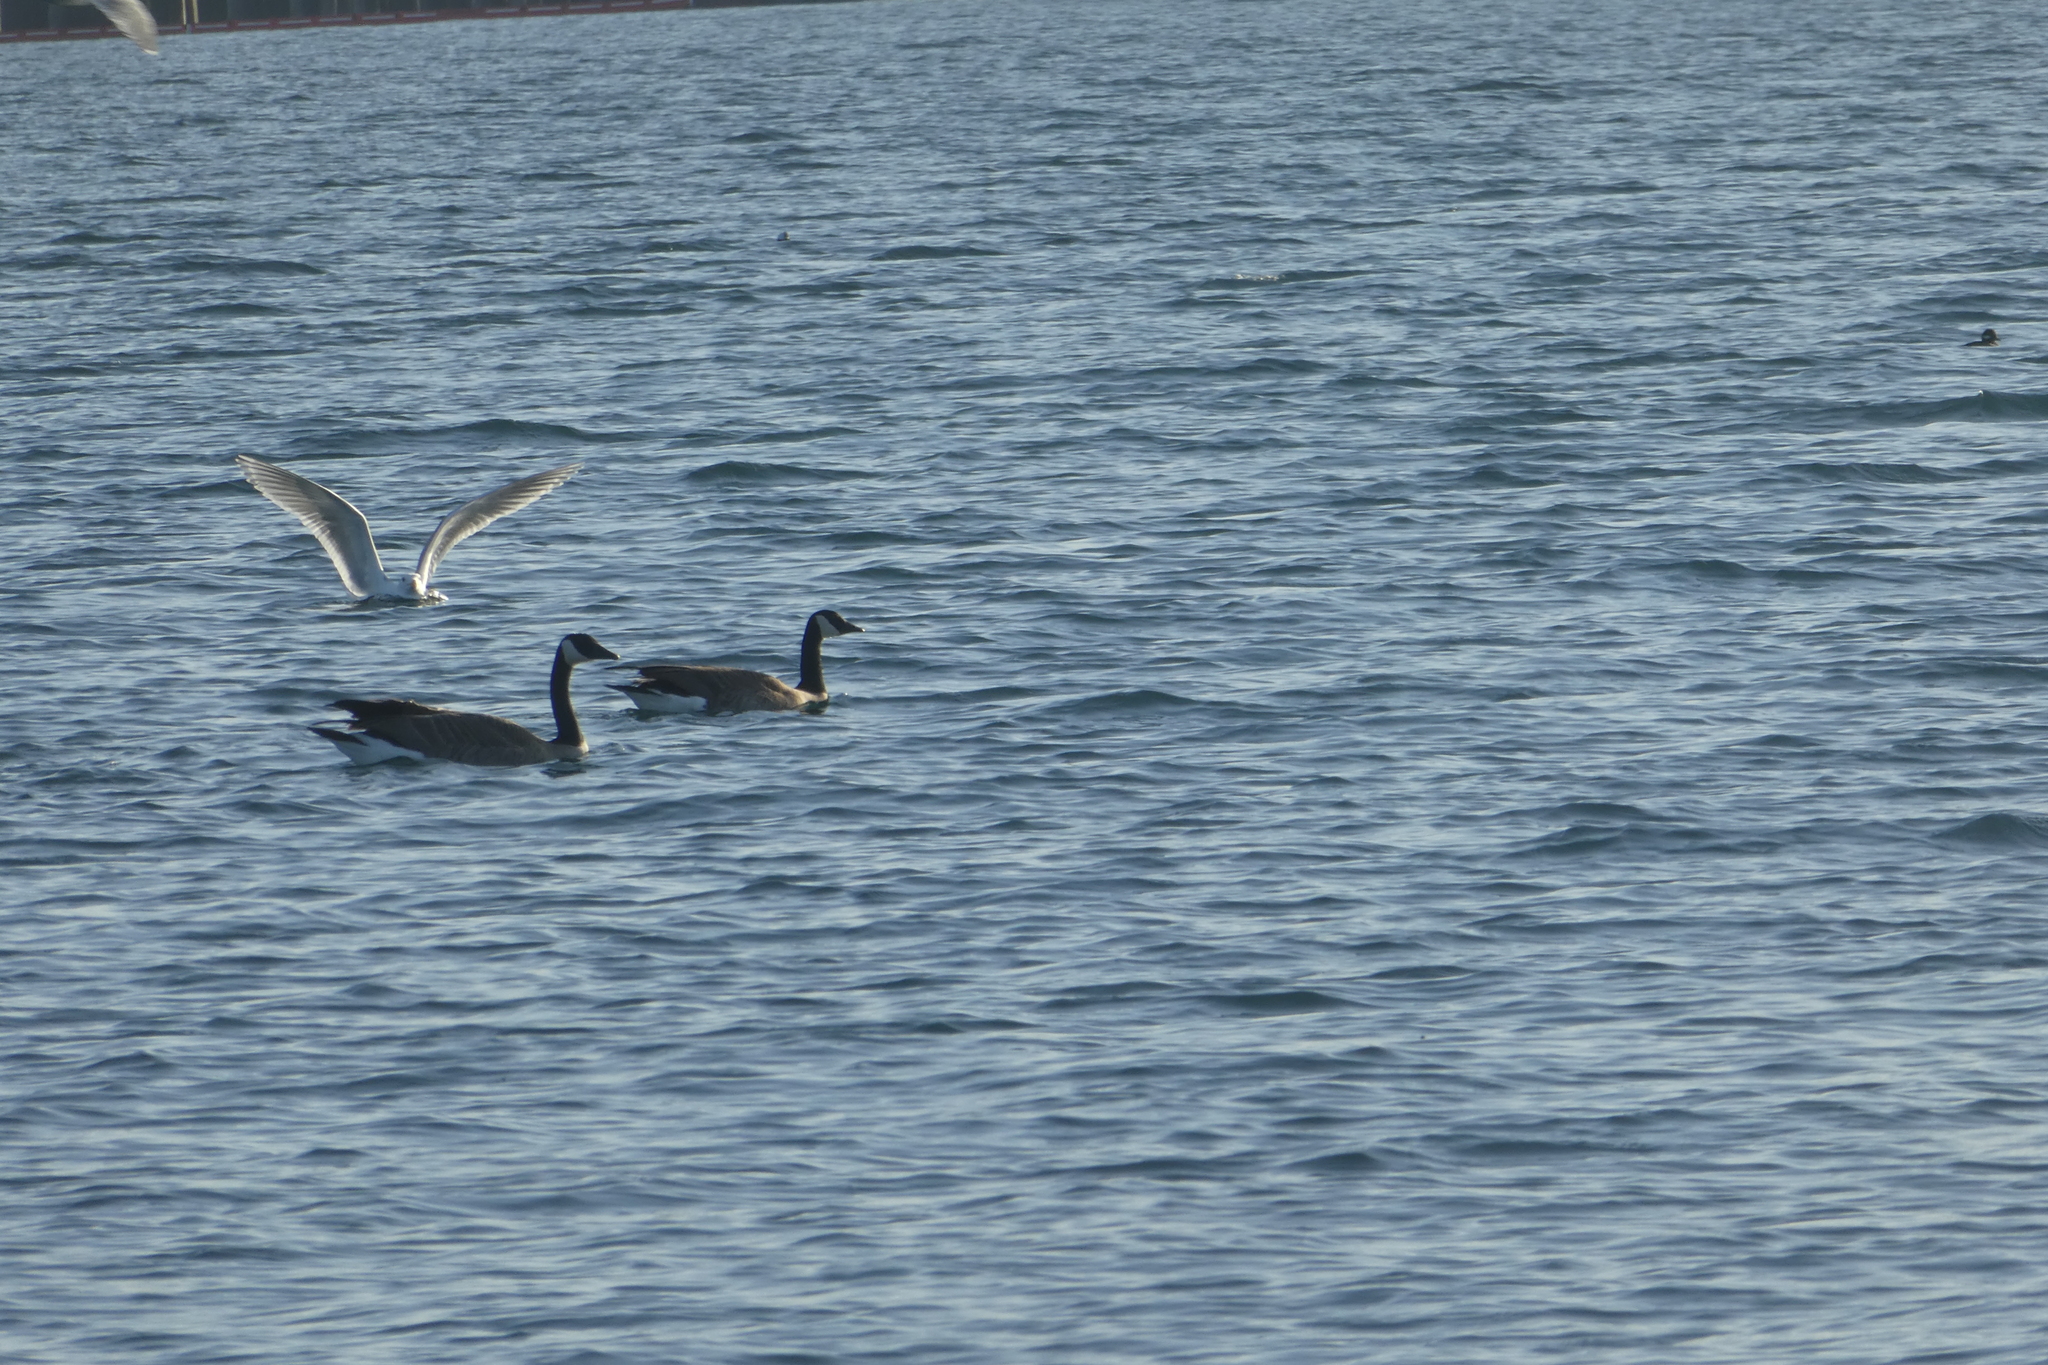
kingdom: Animalia
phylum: Chordata
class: Aves
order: Anseriformes
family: Anatidae
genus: Branta
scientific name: Branta canadensis
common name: Canada goose
